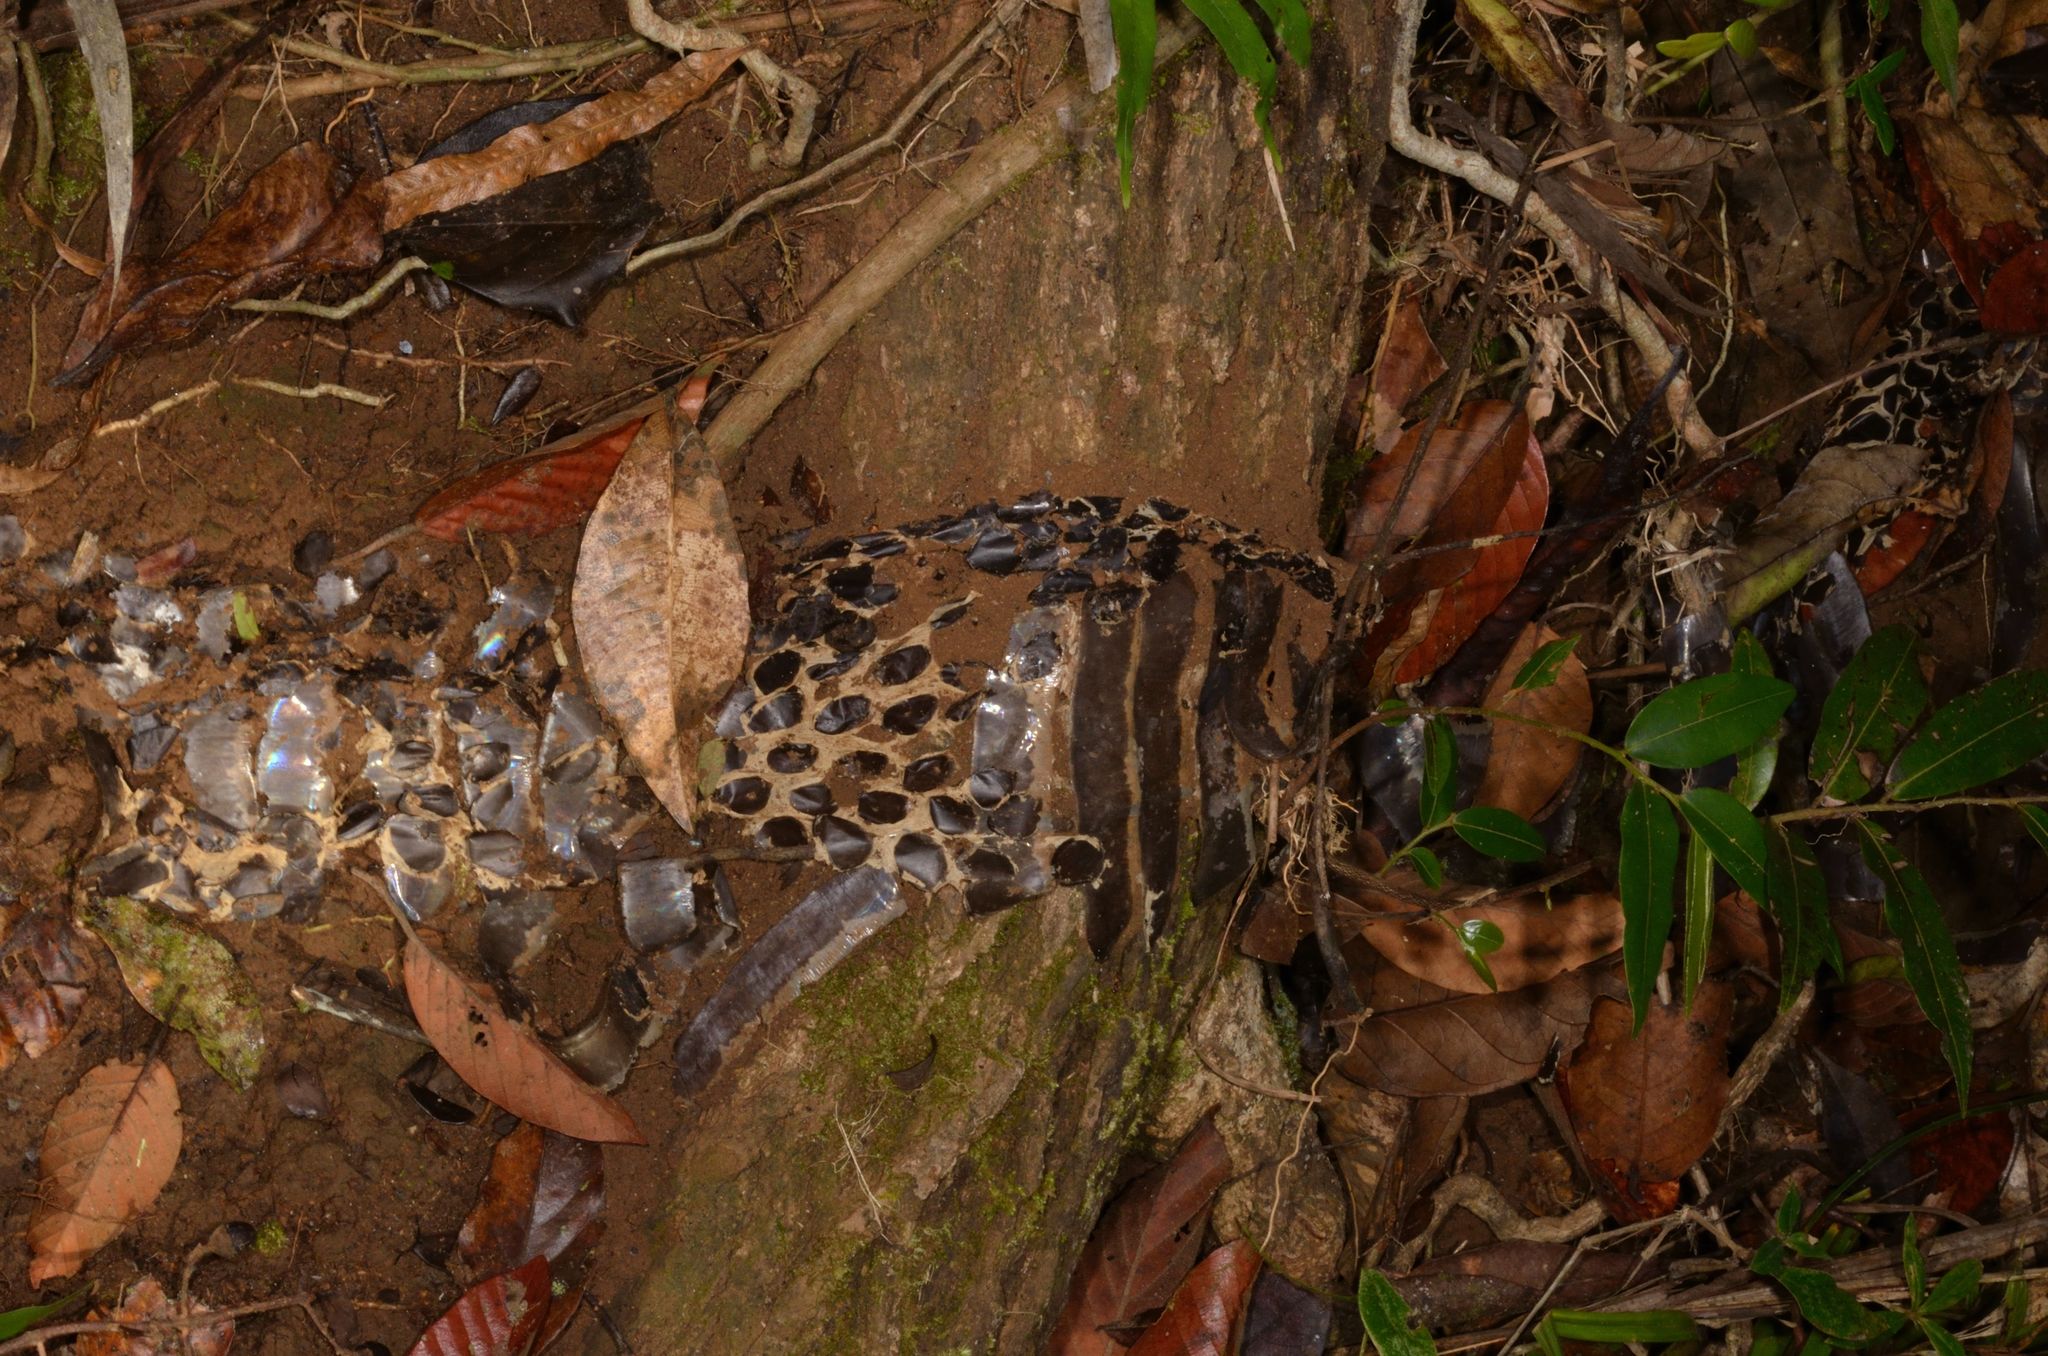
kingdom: Animalia
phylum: Chordata
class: Squamata
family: Elapidae
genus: Ophiophagus
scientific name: Ophiophagus hannah
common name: Hamadryad
